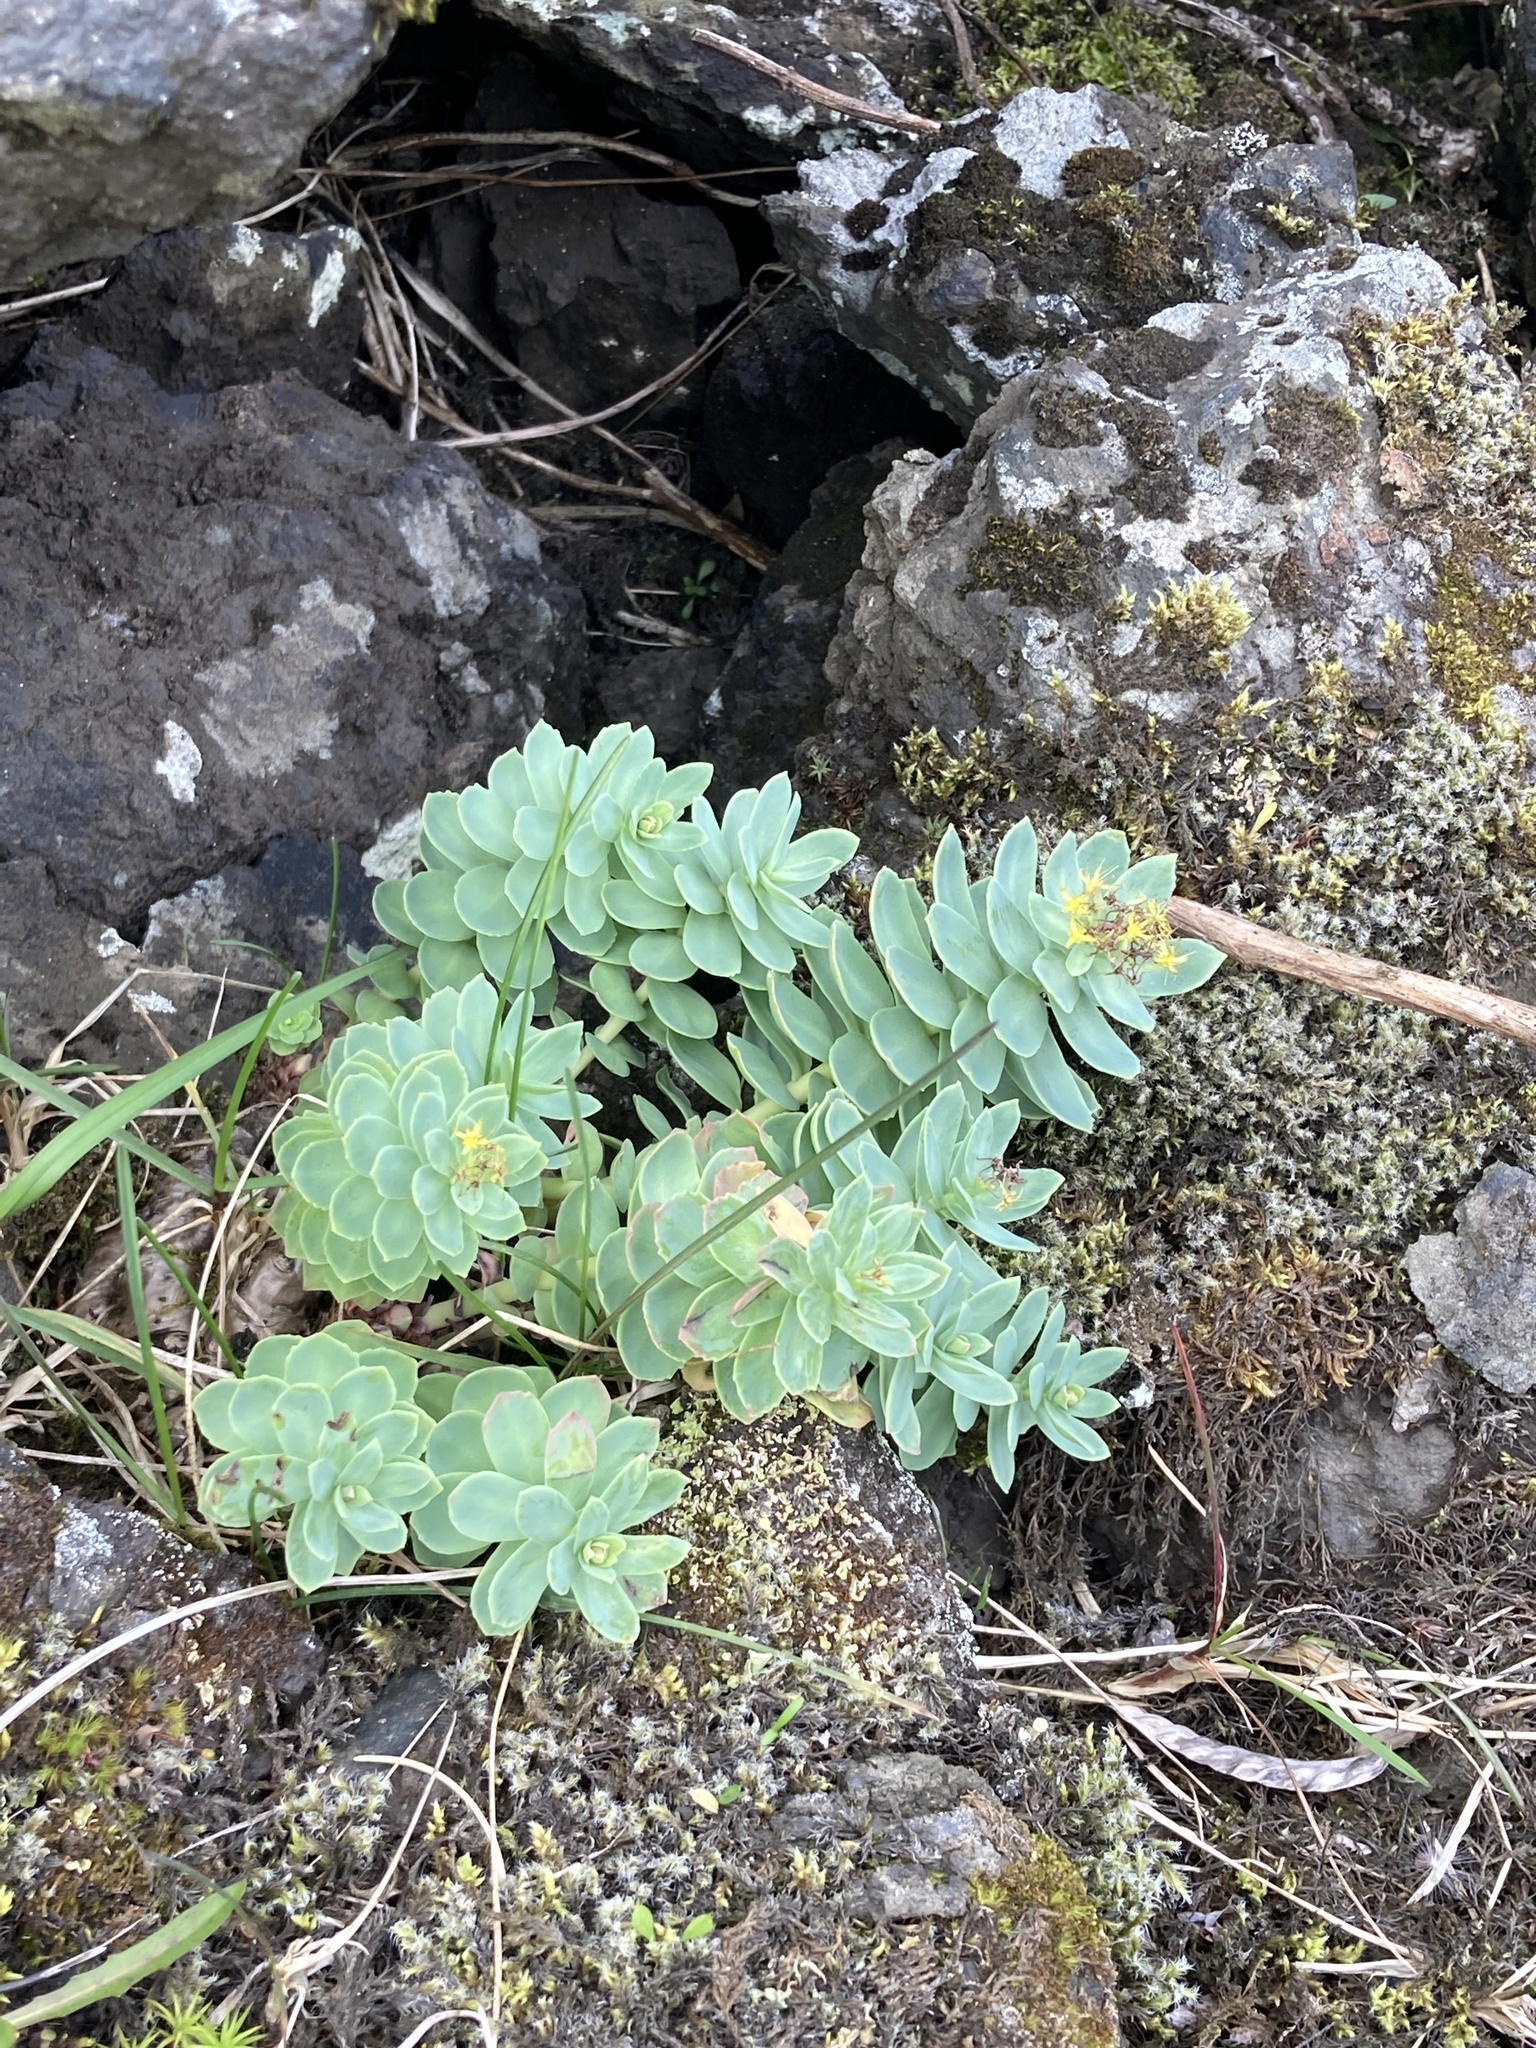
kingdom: Plantae
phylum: Tracheophyta
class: Magnoliopsida
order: Saxifragales
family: Crassulaceae
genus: Rhodiola
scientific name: Rhodiola rosea
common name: Roseroot
